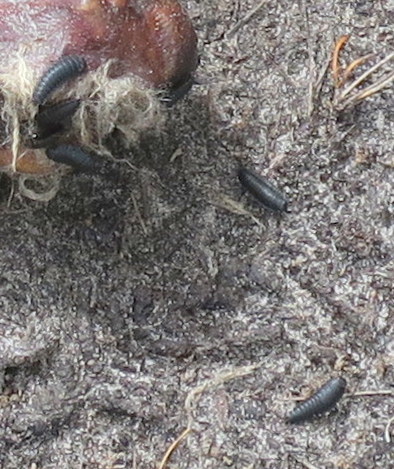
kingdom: Animalia
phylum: Arthropoda
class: Insecta
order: Coleoptera
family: Staphylinidae
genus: Ptomaphila
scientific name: Ptomaphila lacrymosa
